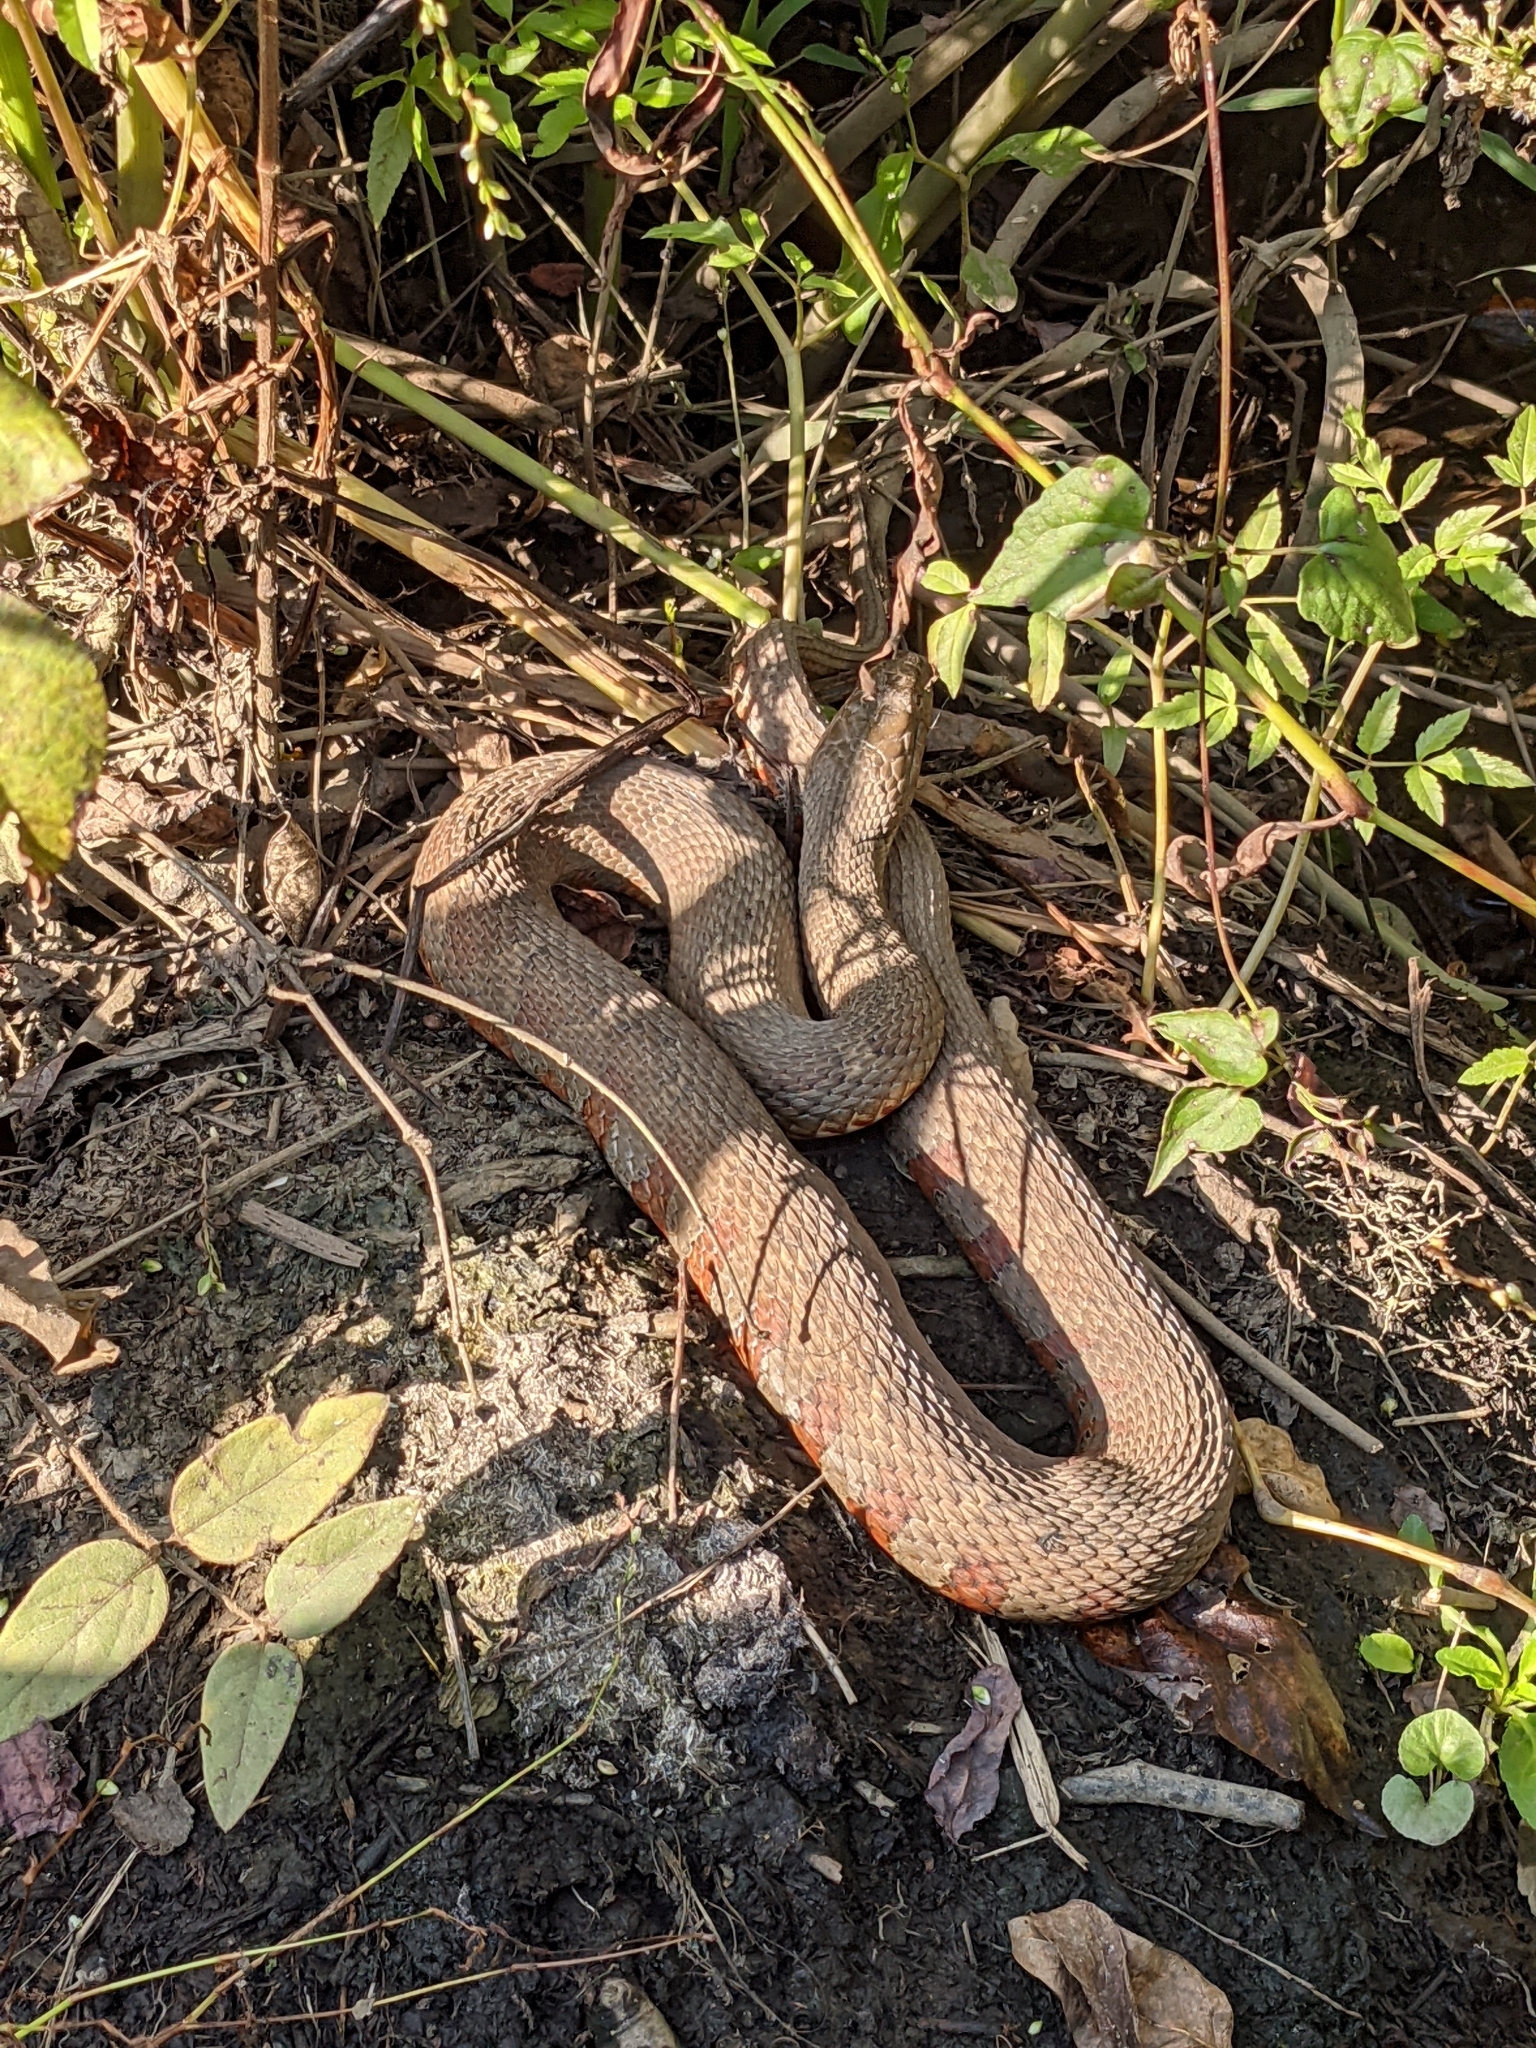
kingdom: Animalia
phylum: Chordata
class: Squamata
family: Colubridae
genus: Nerodia
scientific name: Nerodia sipedon
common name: Northern water snake
